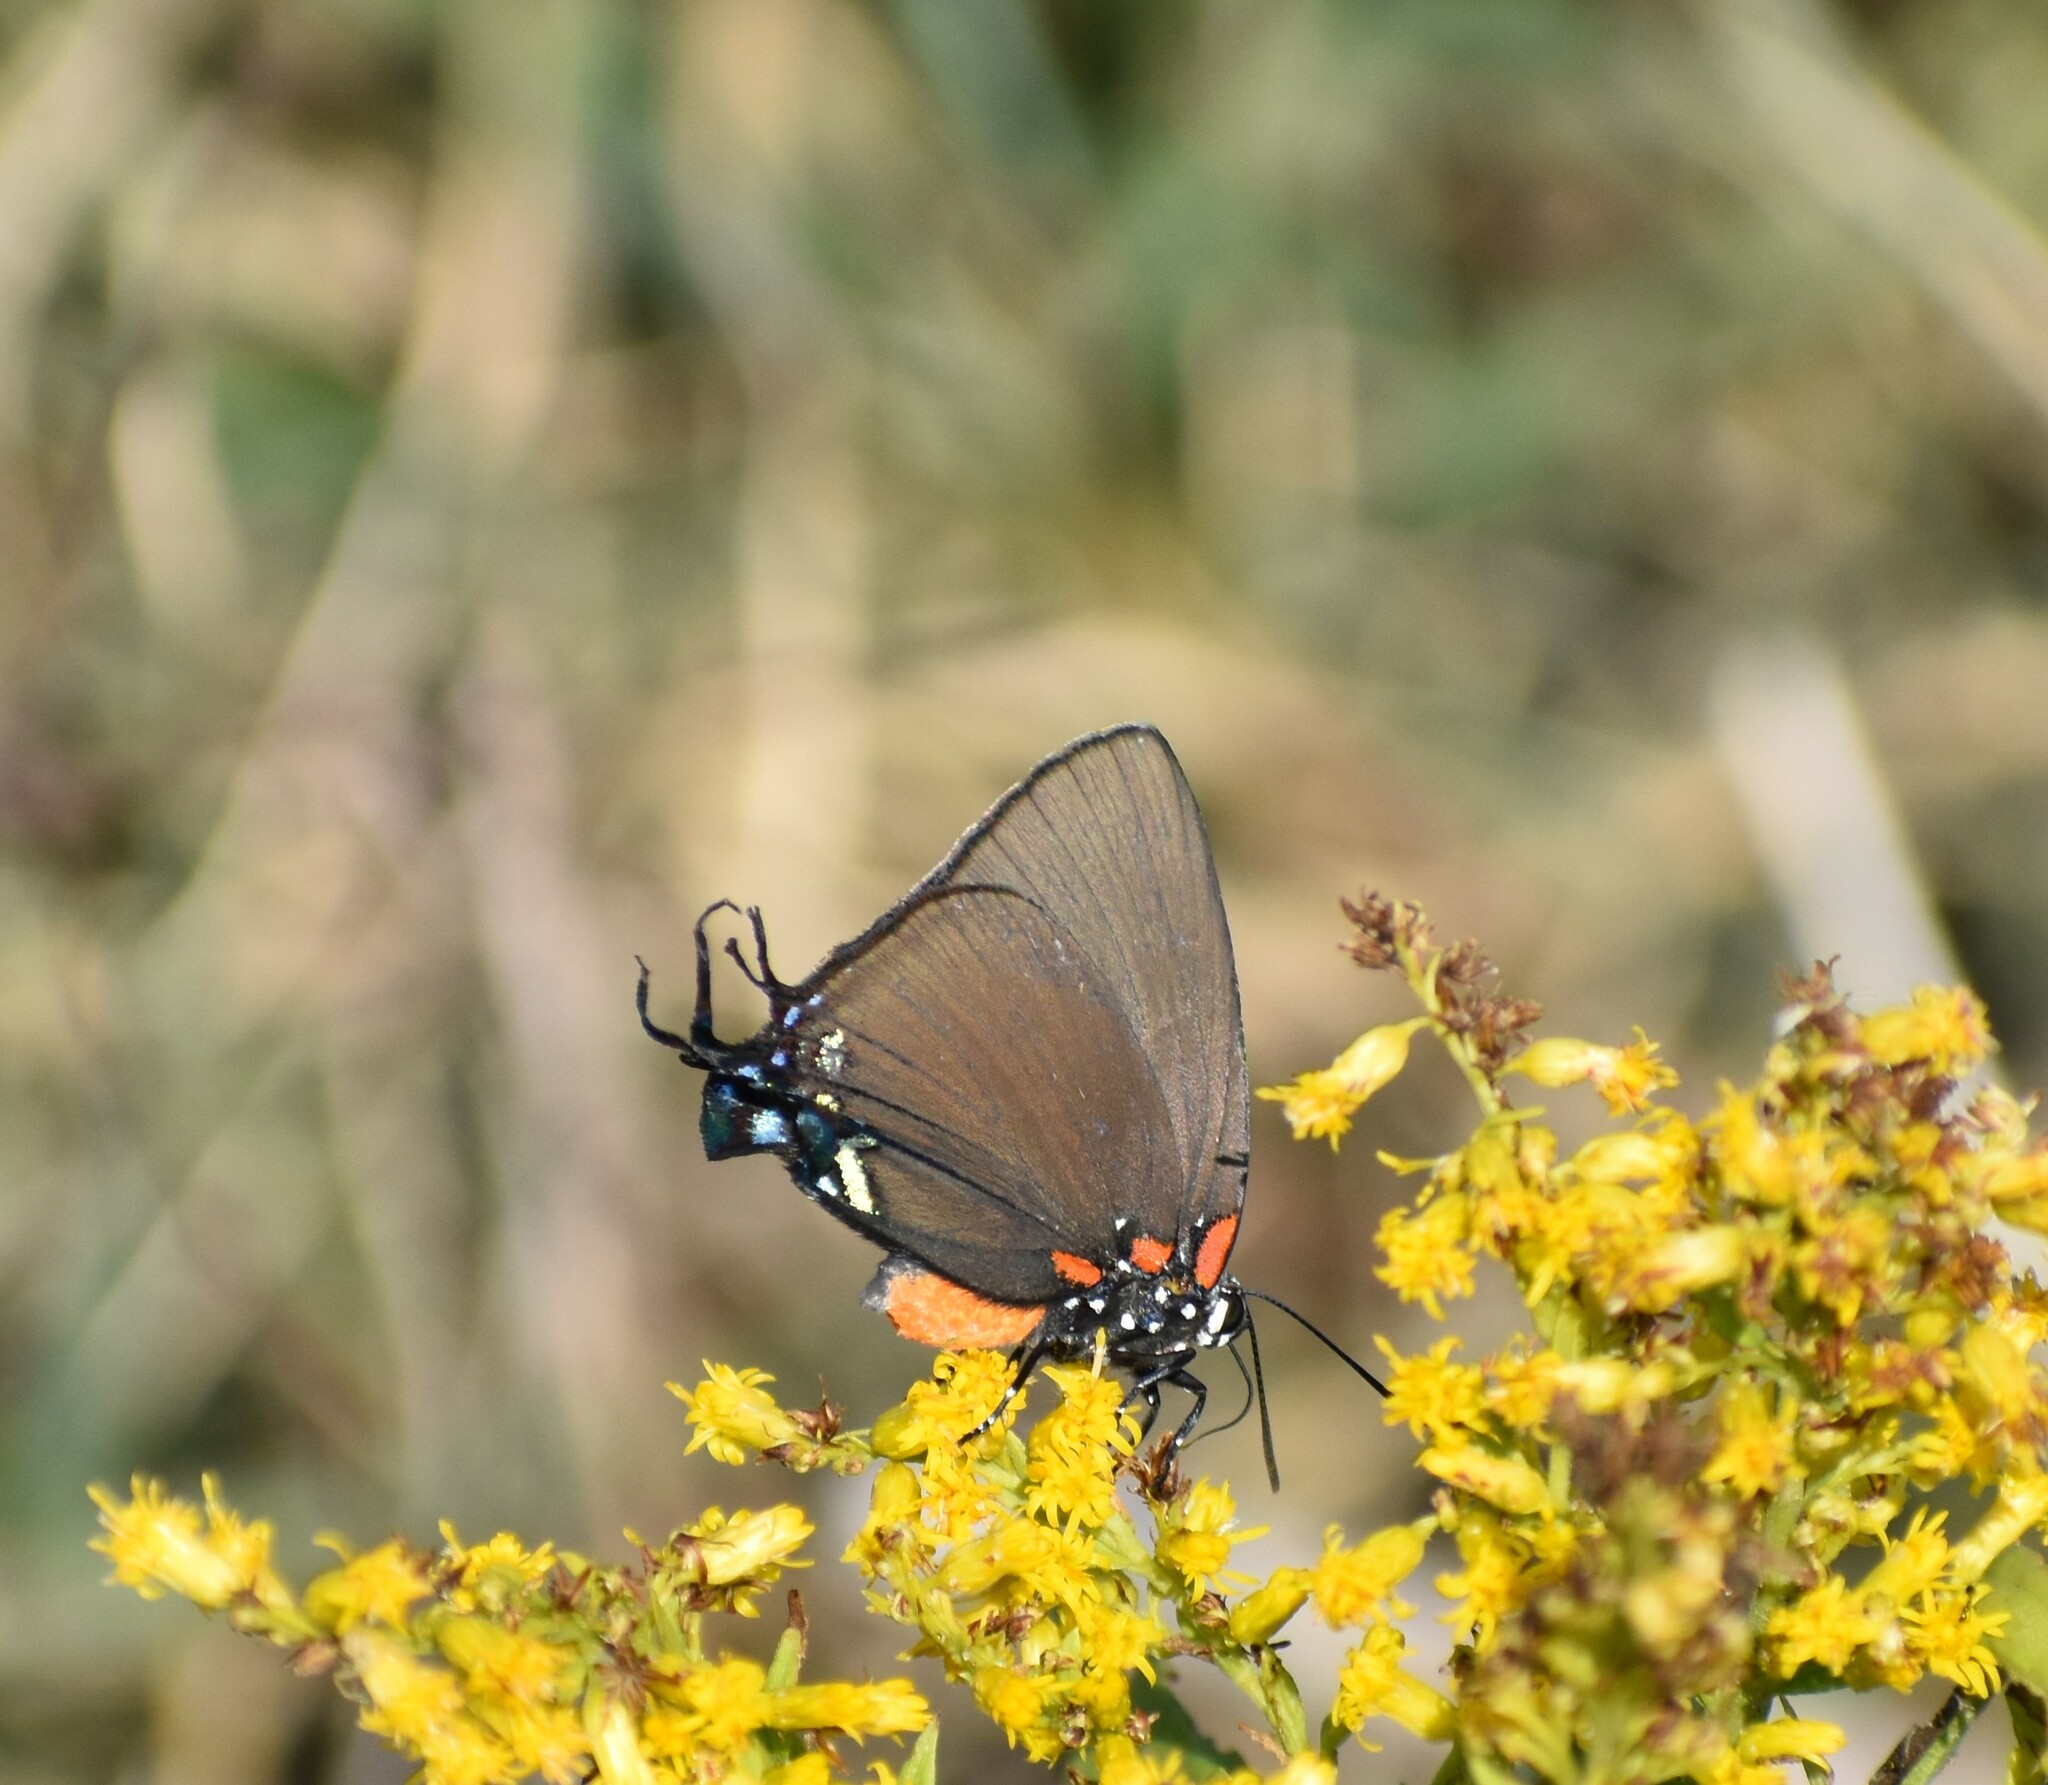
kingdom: Animalia
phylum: Arthropoda
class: Insecta
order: Lepidoptera
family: Lycaenidae
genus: Atlides
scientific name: Atlides halesus
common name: Great purple hairstreak
